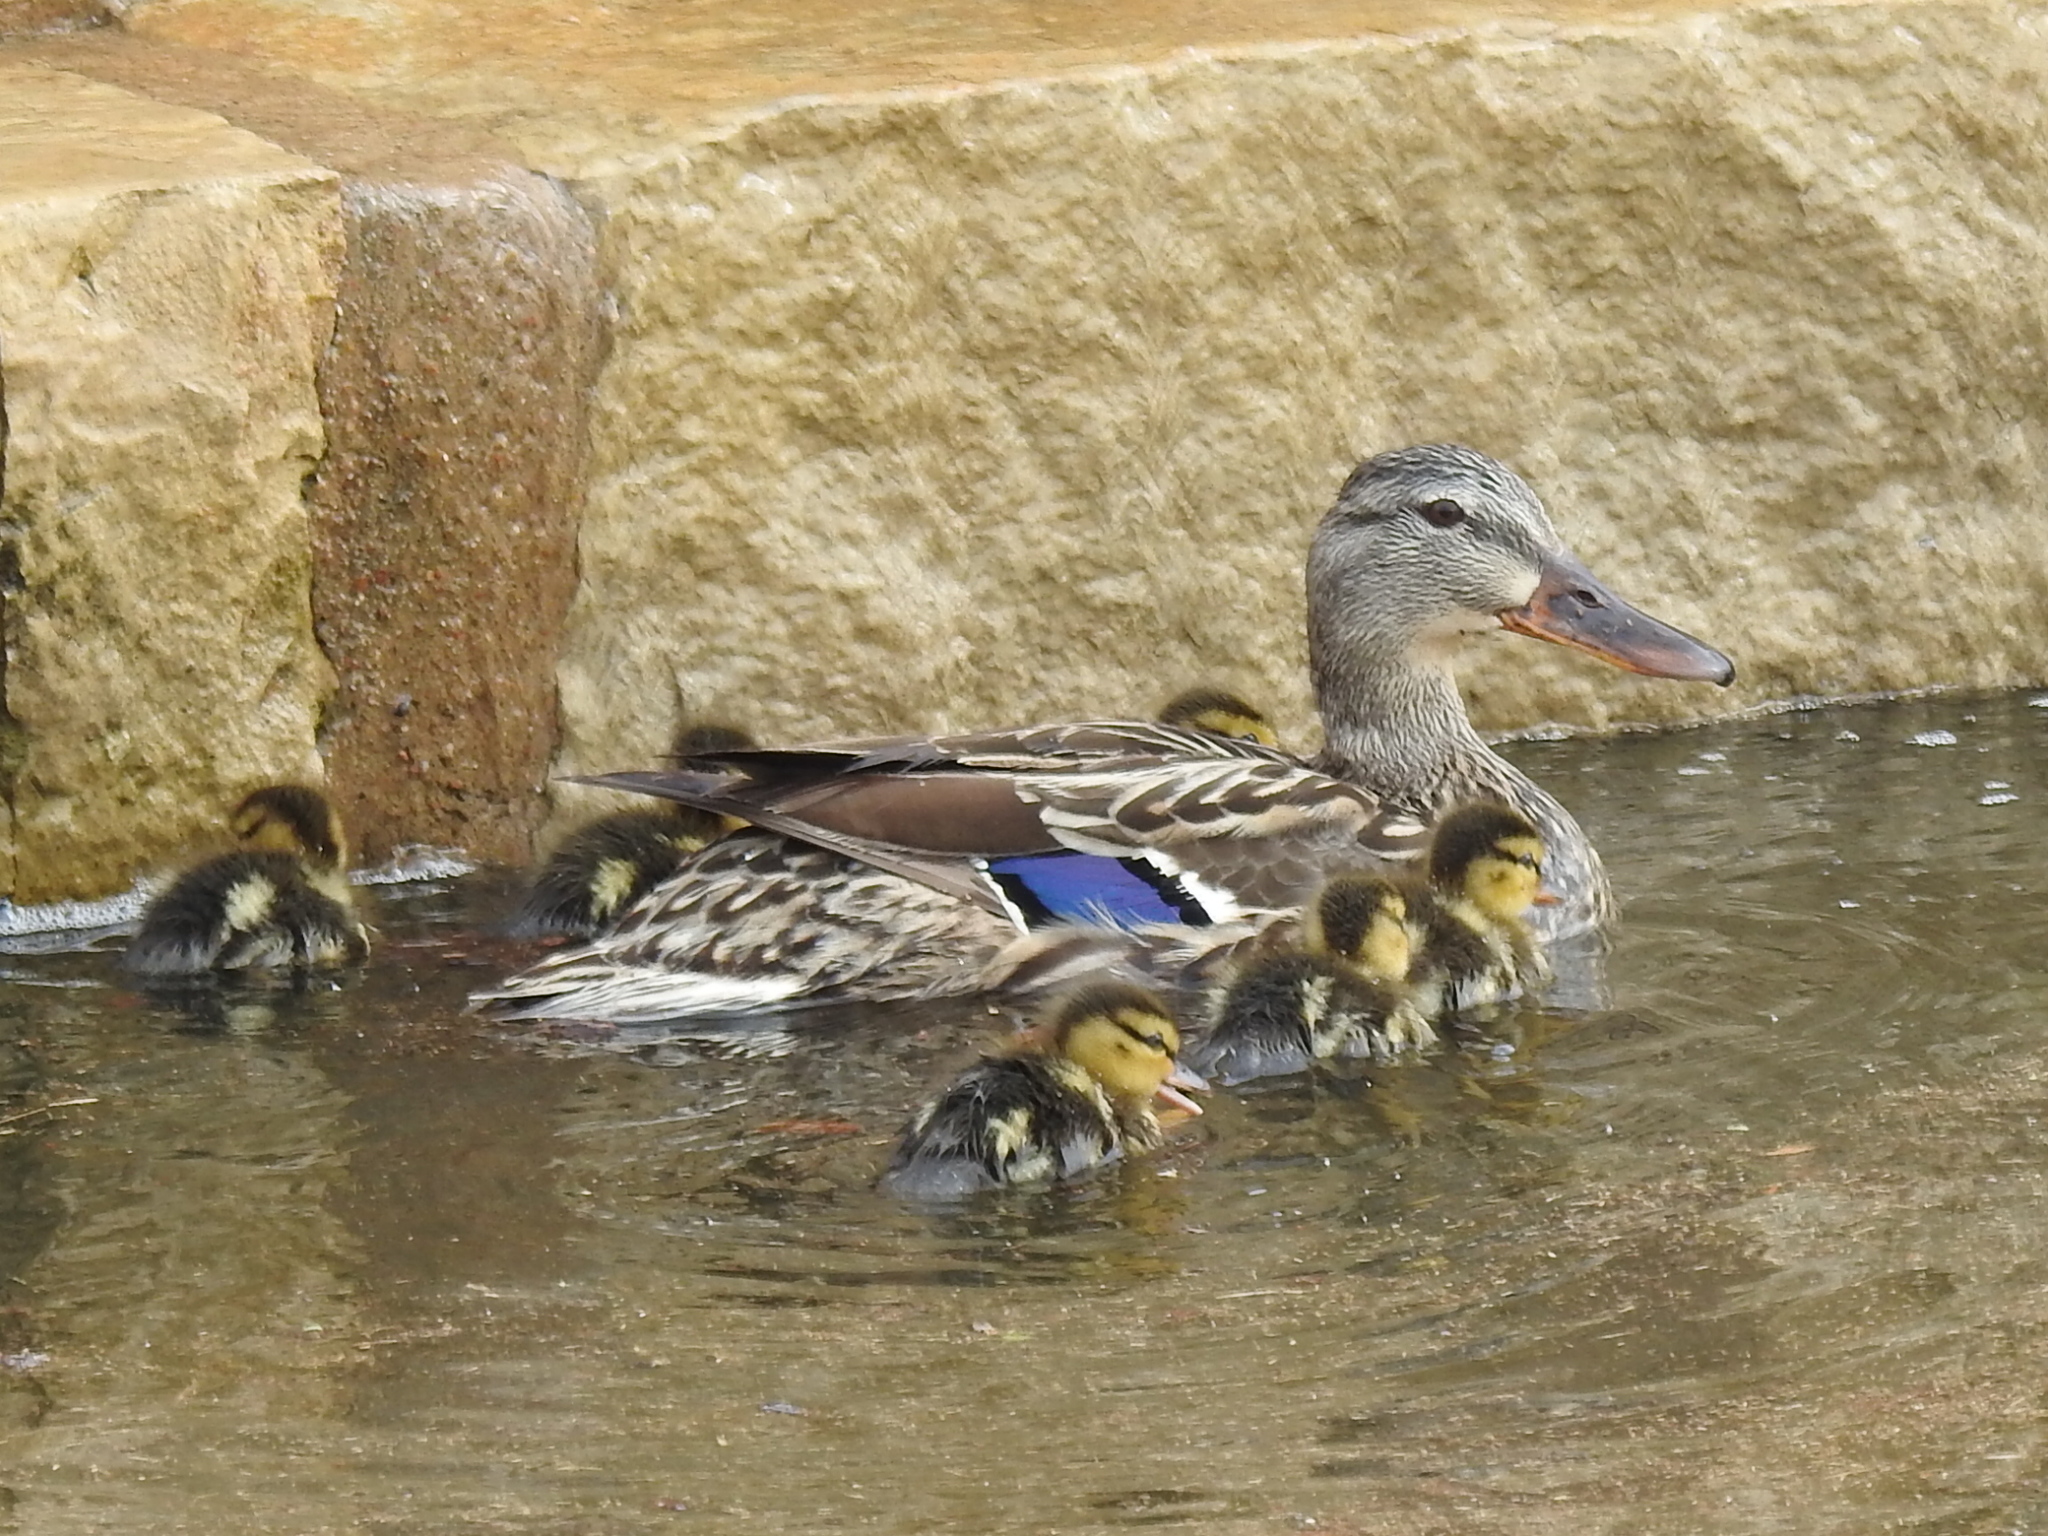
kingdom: Animalia
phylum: Chordata
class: Aves
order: Anseriformes
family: Anatidae
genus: Anas
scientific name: Anas platyrhynchos
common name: Mallard
